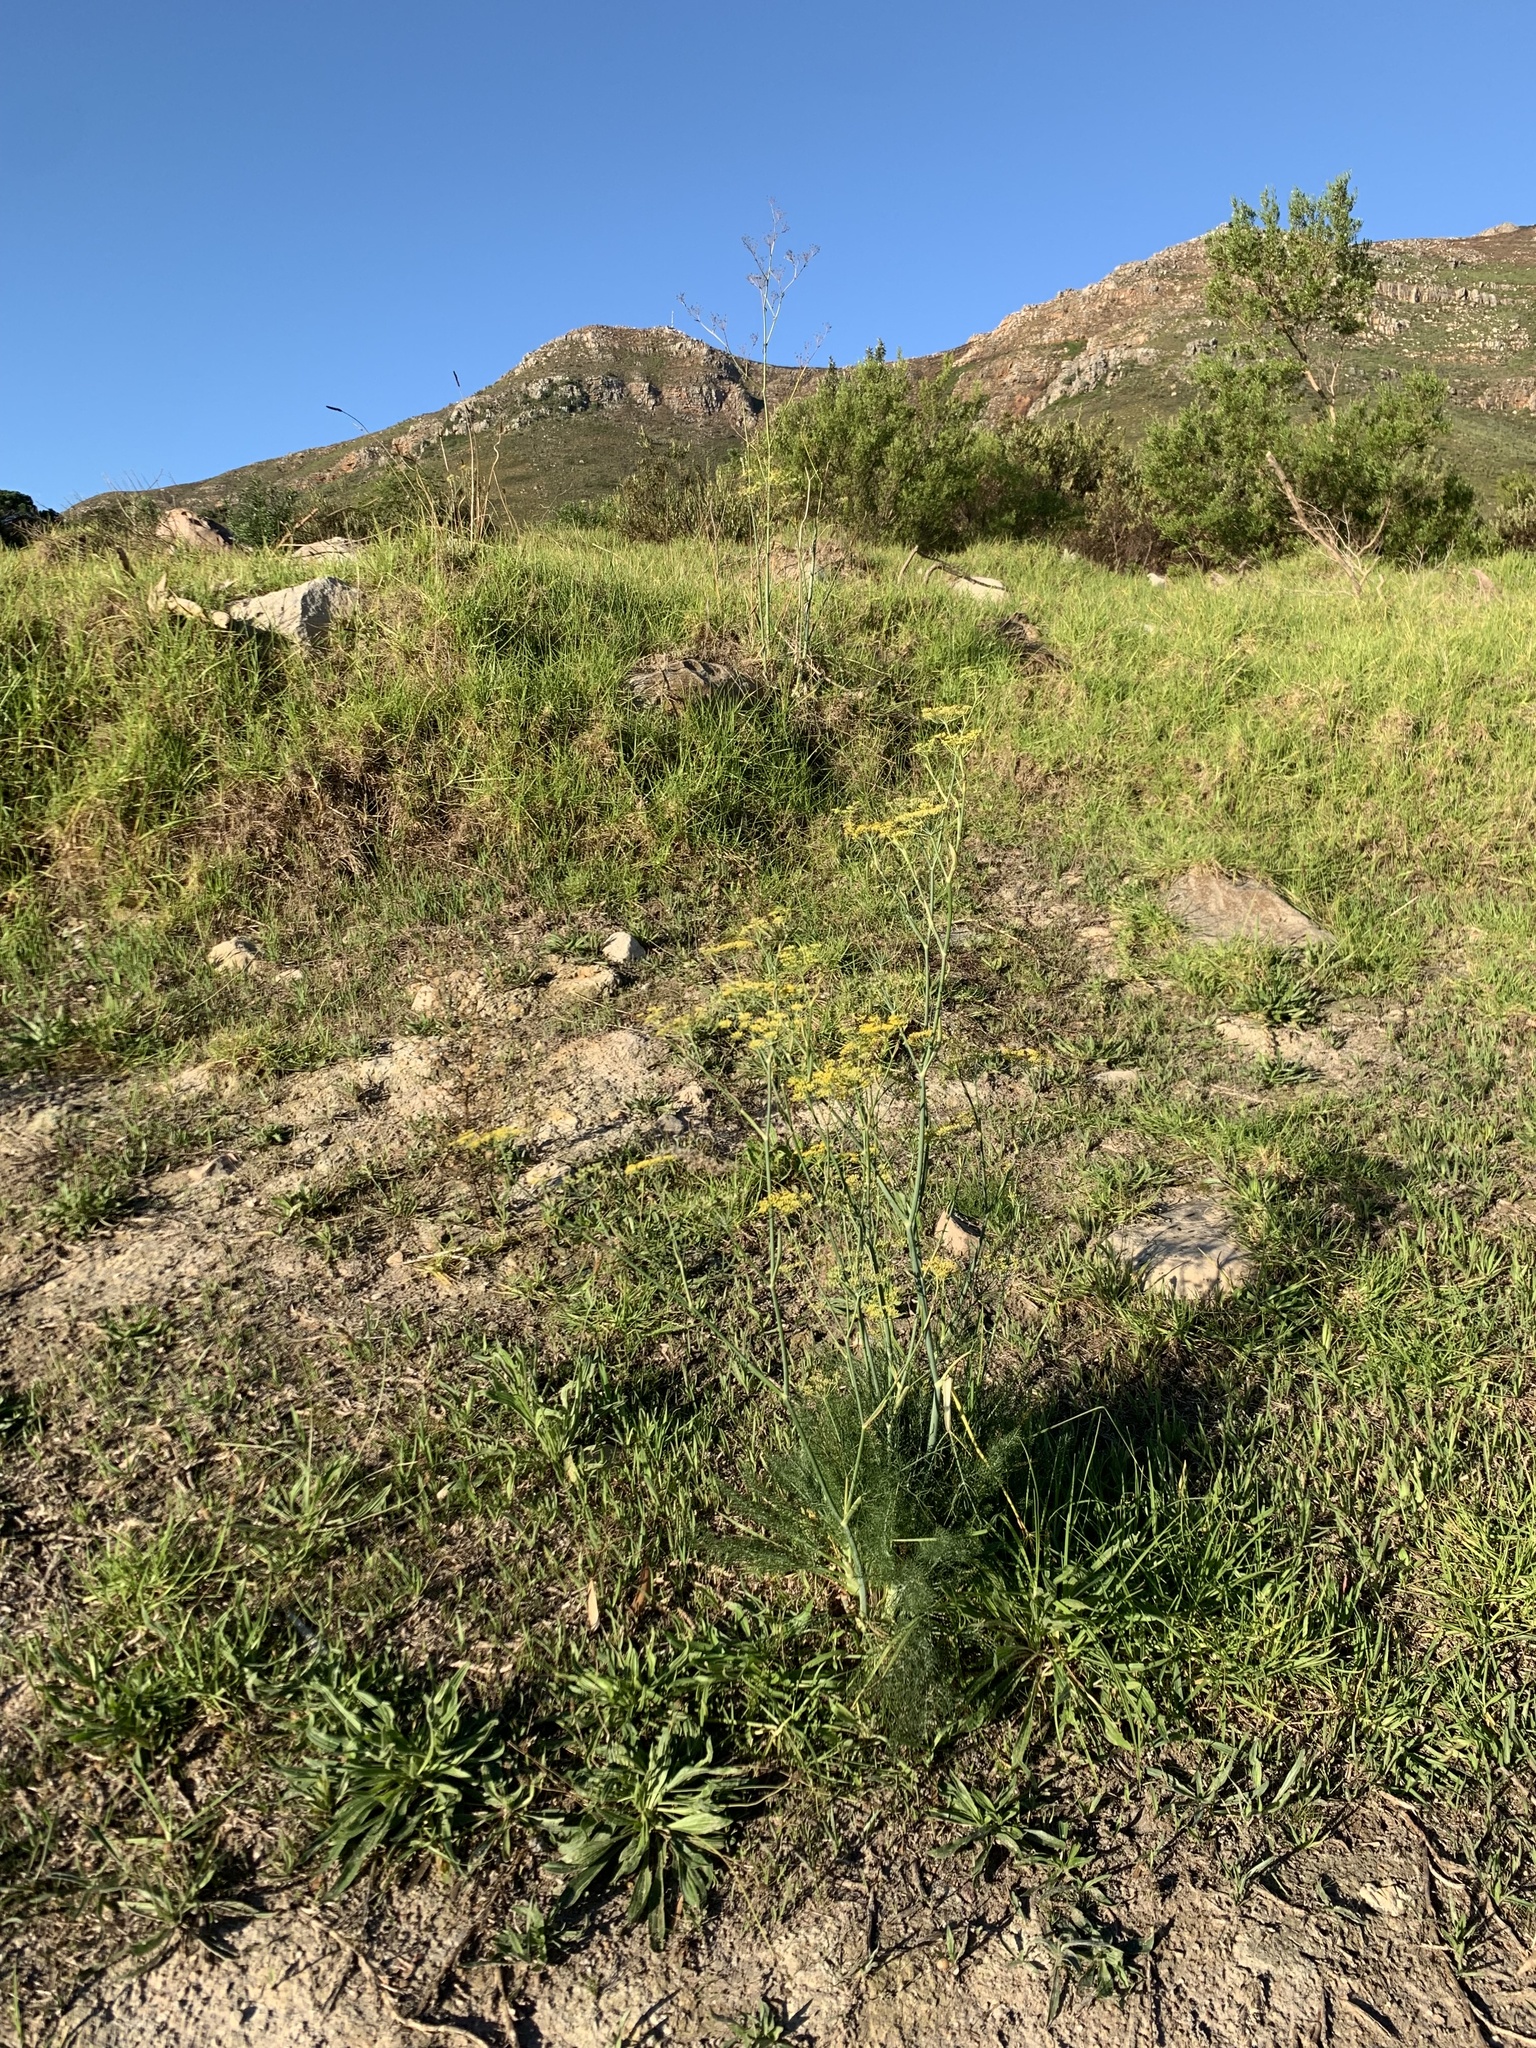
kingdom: Plantae
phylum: Tracheophyta
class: Magnoliopsida
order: Apiales
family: Apiaceae
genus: Foeniculum
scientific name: Foeniculum vulgare
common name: Fennel
